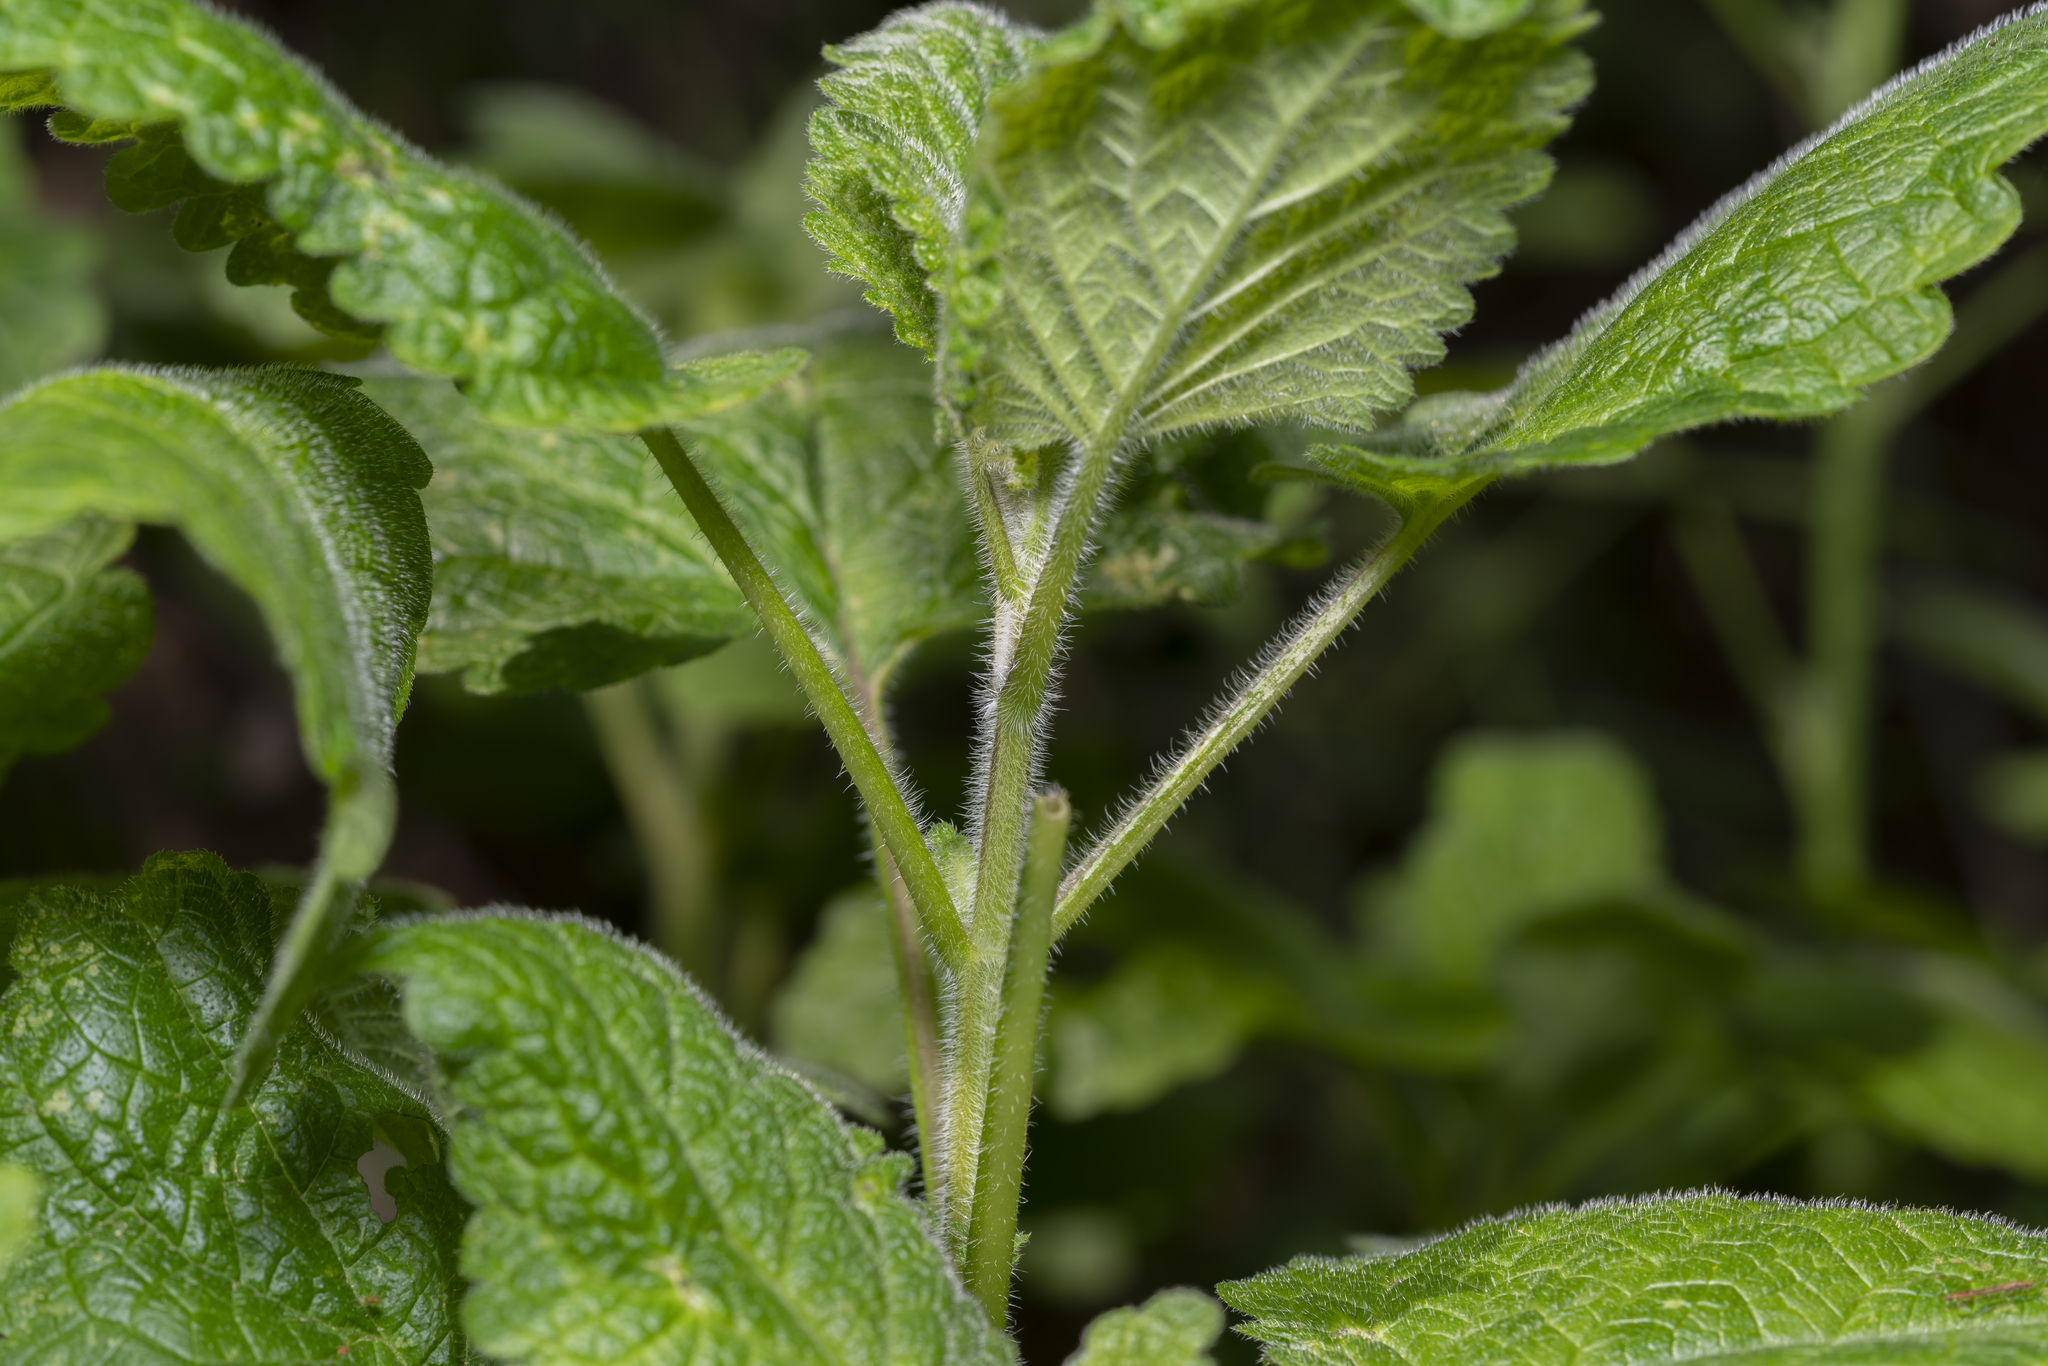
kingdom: Plantae
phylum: Tracheophyta
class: Magnoliopsida
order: Lamiales
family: Lamiaceae
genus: Melissa
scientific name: Melissa officinalis
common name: Balm
